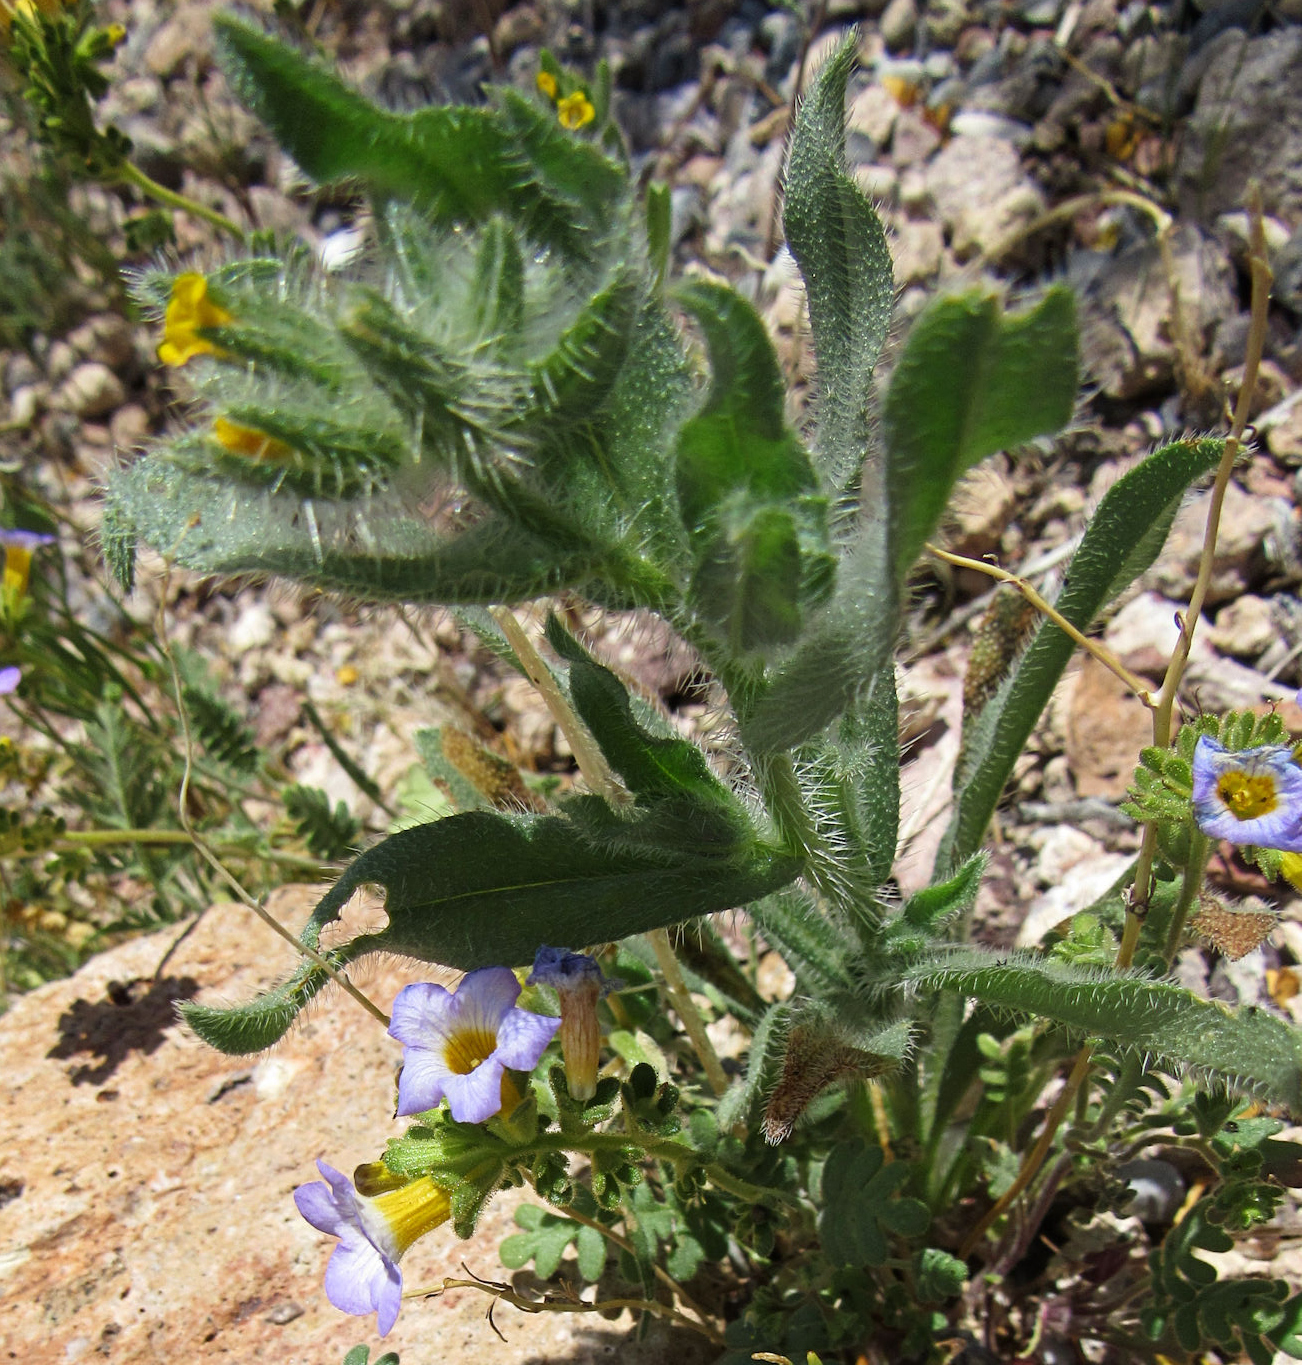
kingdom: Plantae
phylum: Tracheophyta
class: Magnoliopsida
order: Boraginales
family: Boraginaceae
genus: Amsinckia
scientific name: Amsinckia tessellata
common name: Tessellate fiddleneck
